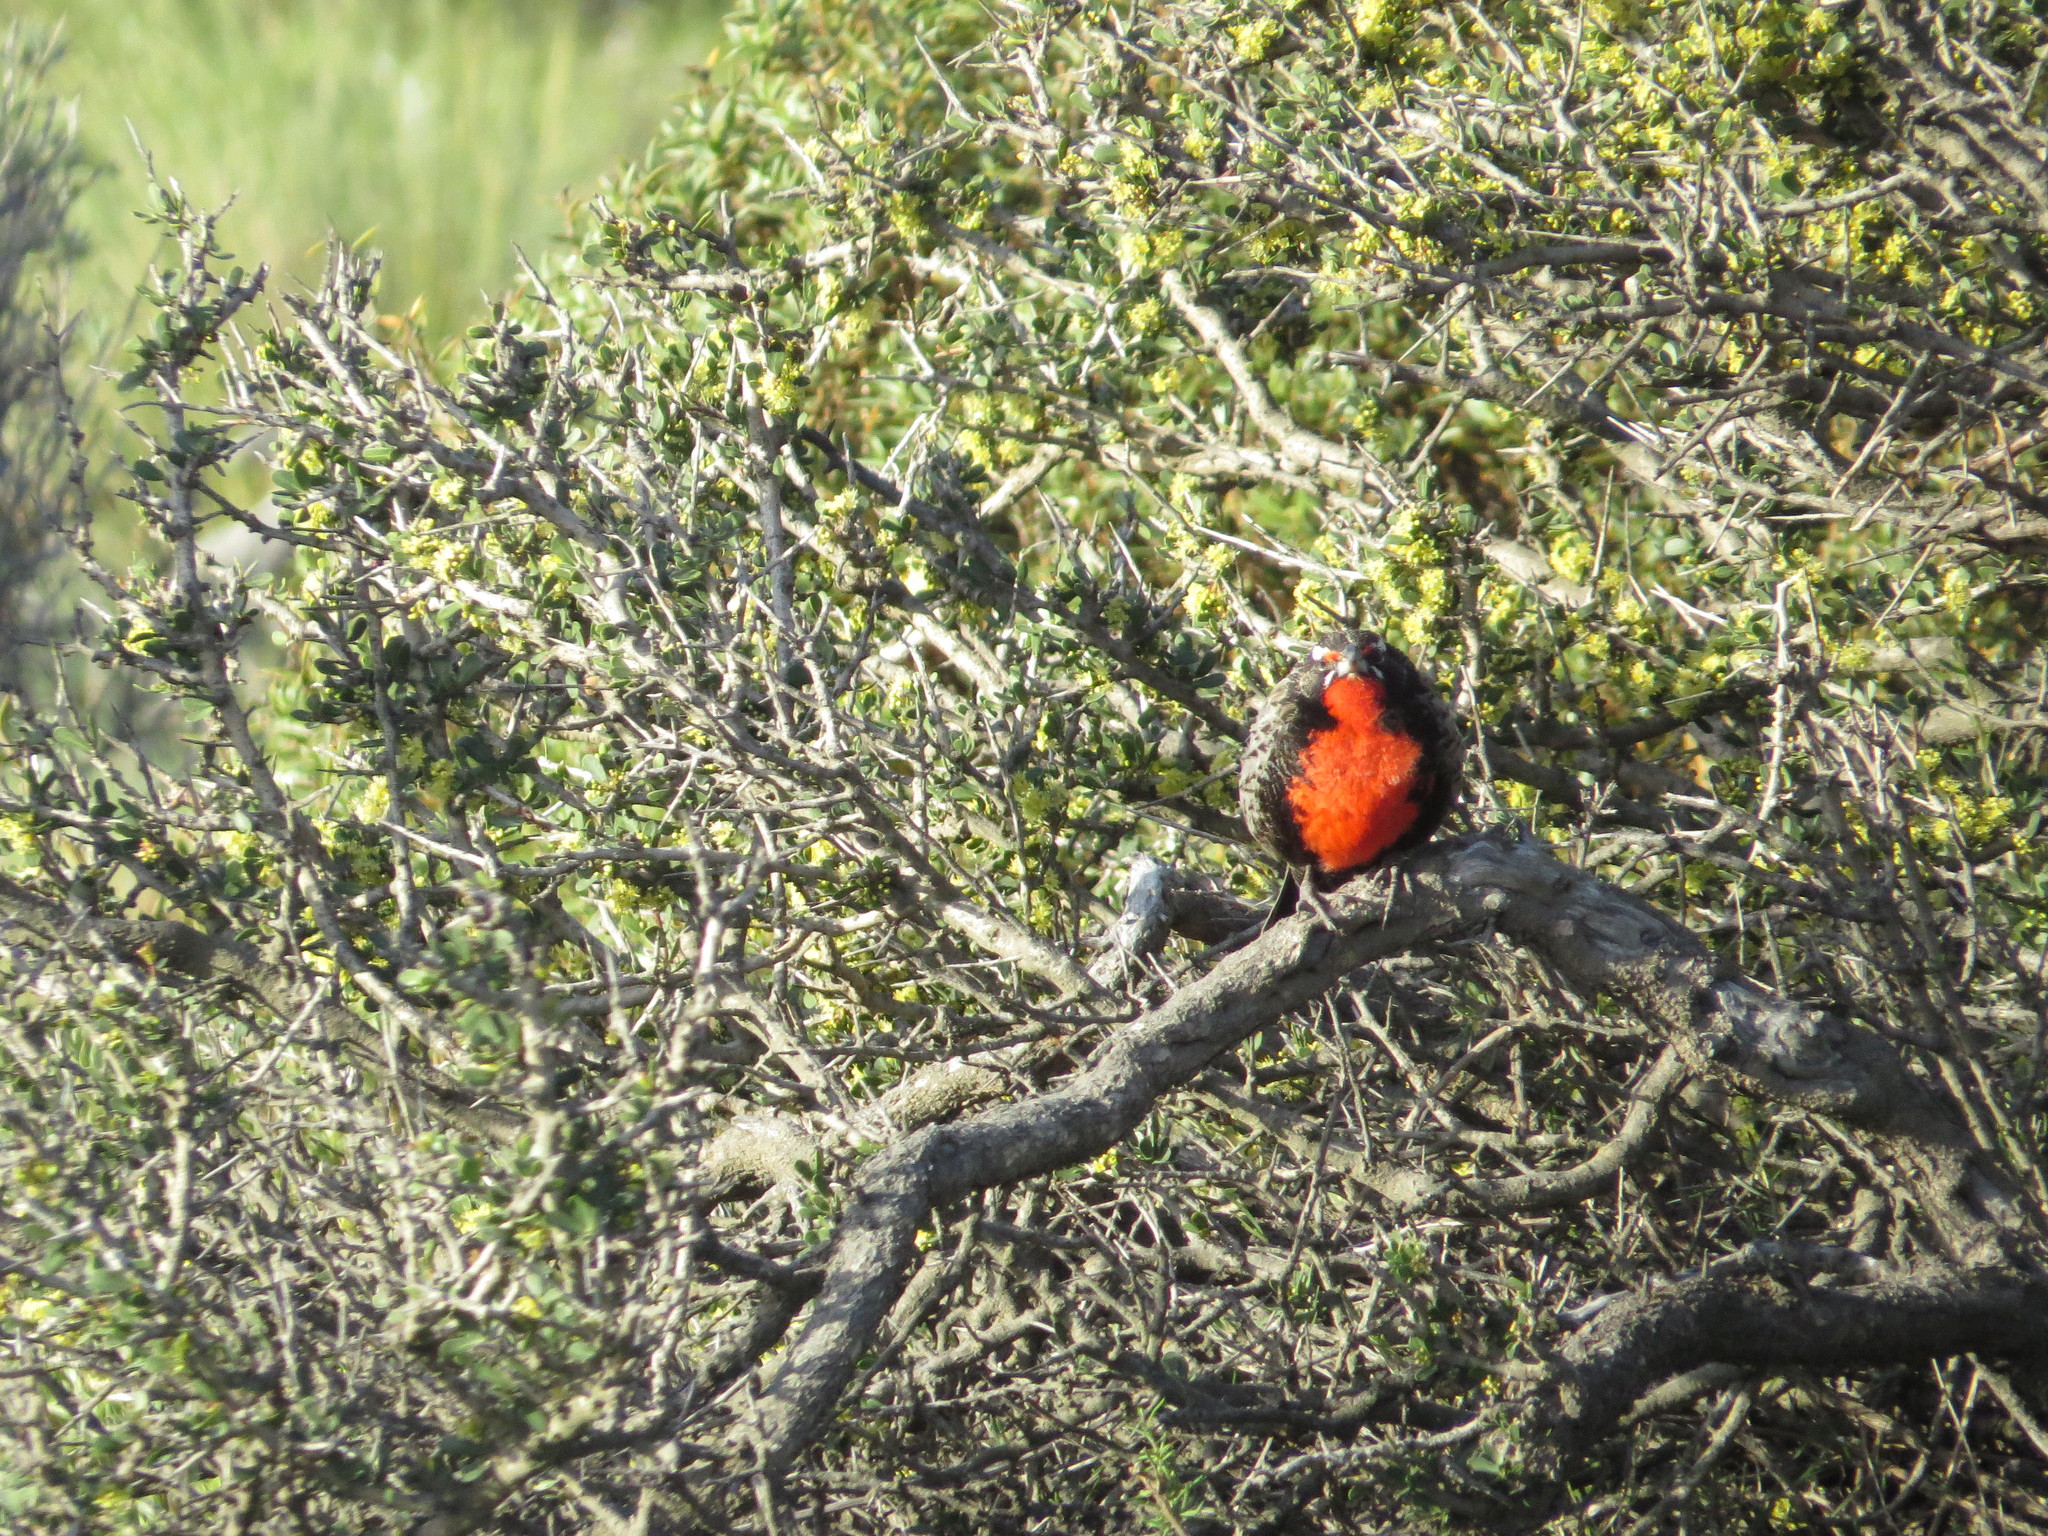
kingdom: Animalia
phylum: Chordata
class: Aves
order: Passeriformes
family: Icteridae
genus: Sturnella
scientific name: Sturnella loyca
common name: Long-tailed meadowlark
